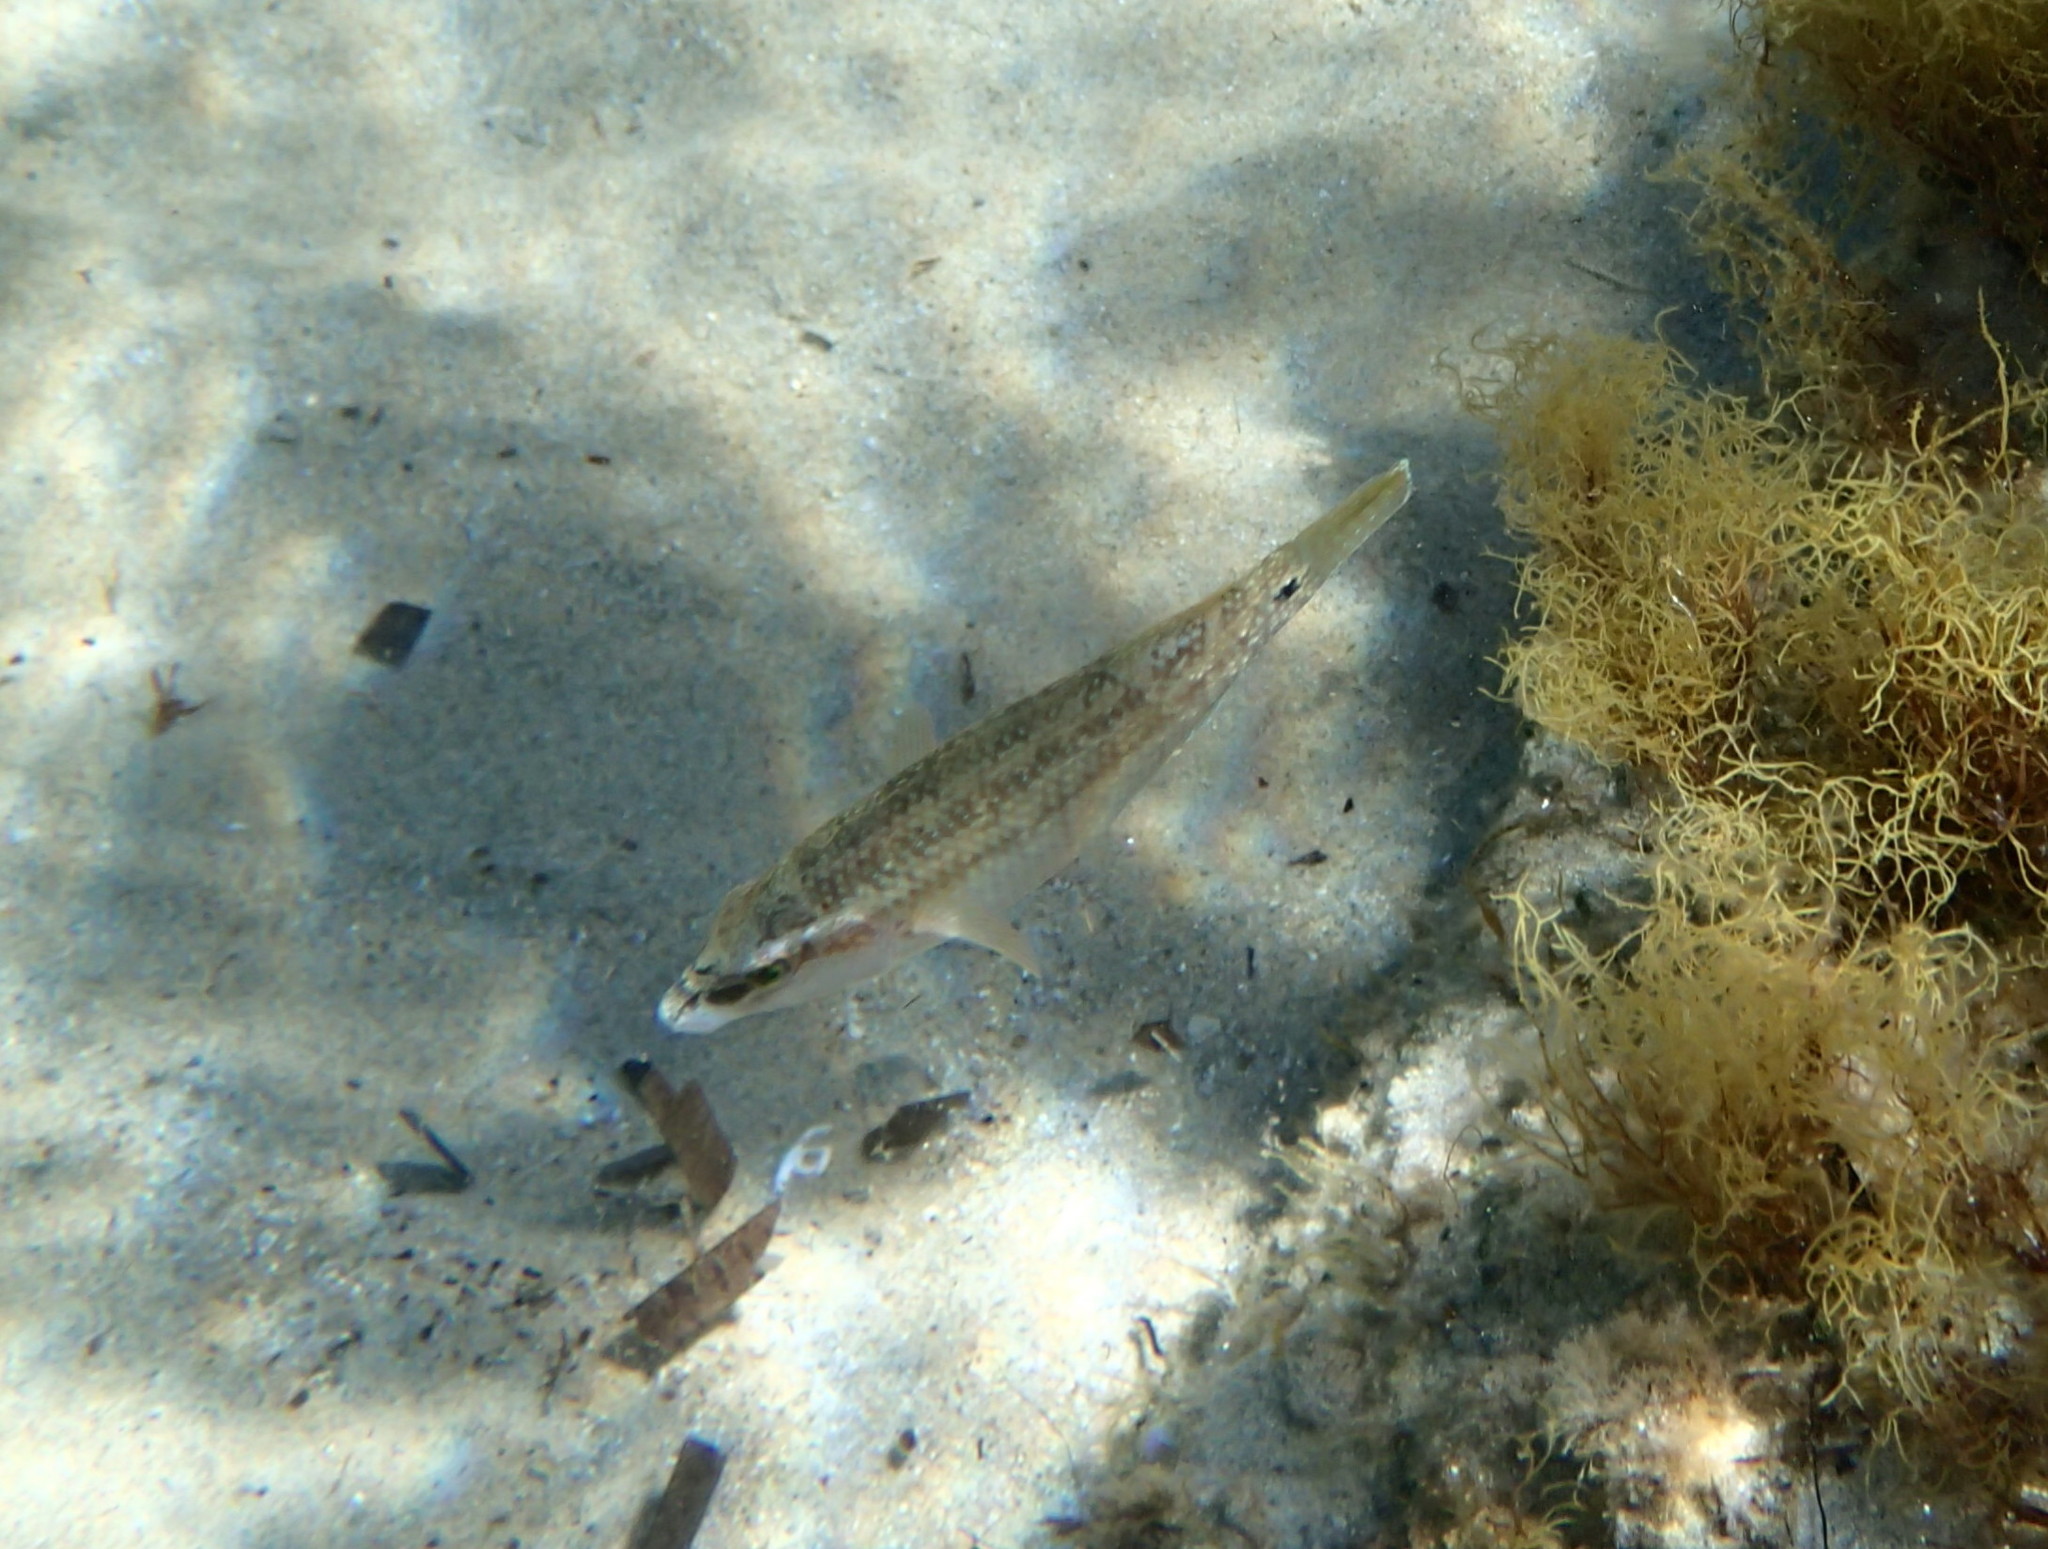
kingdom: Animalia
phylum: Chordata
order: Perciformes
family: Labridae
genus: Symphodus
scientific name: Symphodus tinca
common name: Peacock wrasse
